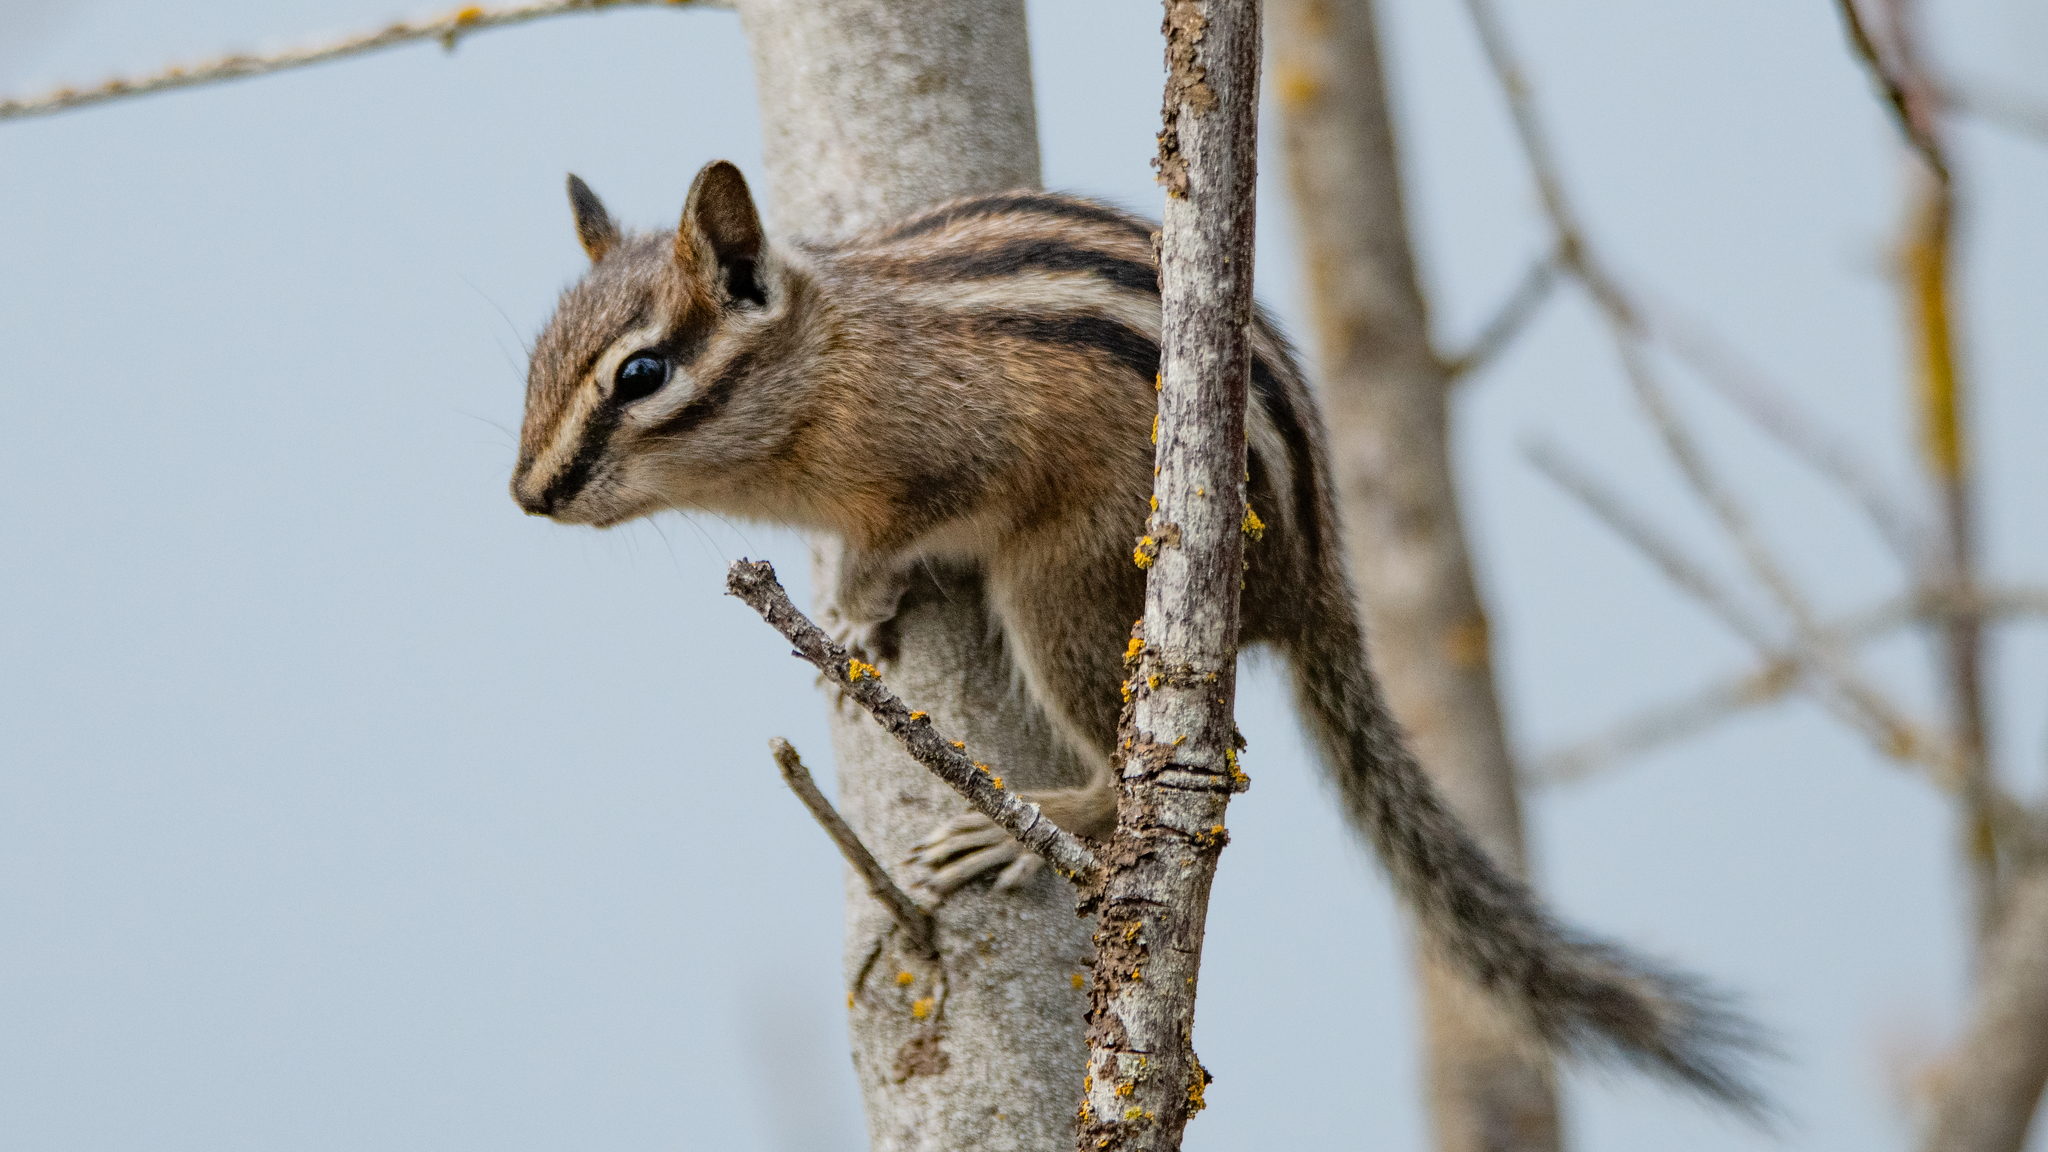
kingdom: Animalia
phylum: Chordata
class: Mammalia
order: Rodentia
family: Sciuridae
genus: Tamias
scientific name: Tamias amoenus
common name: Yellow-pine chipmunk
